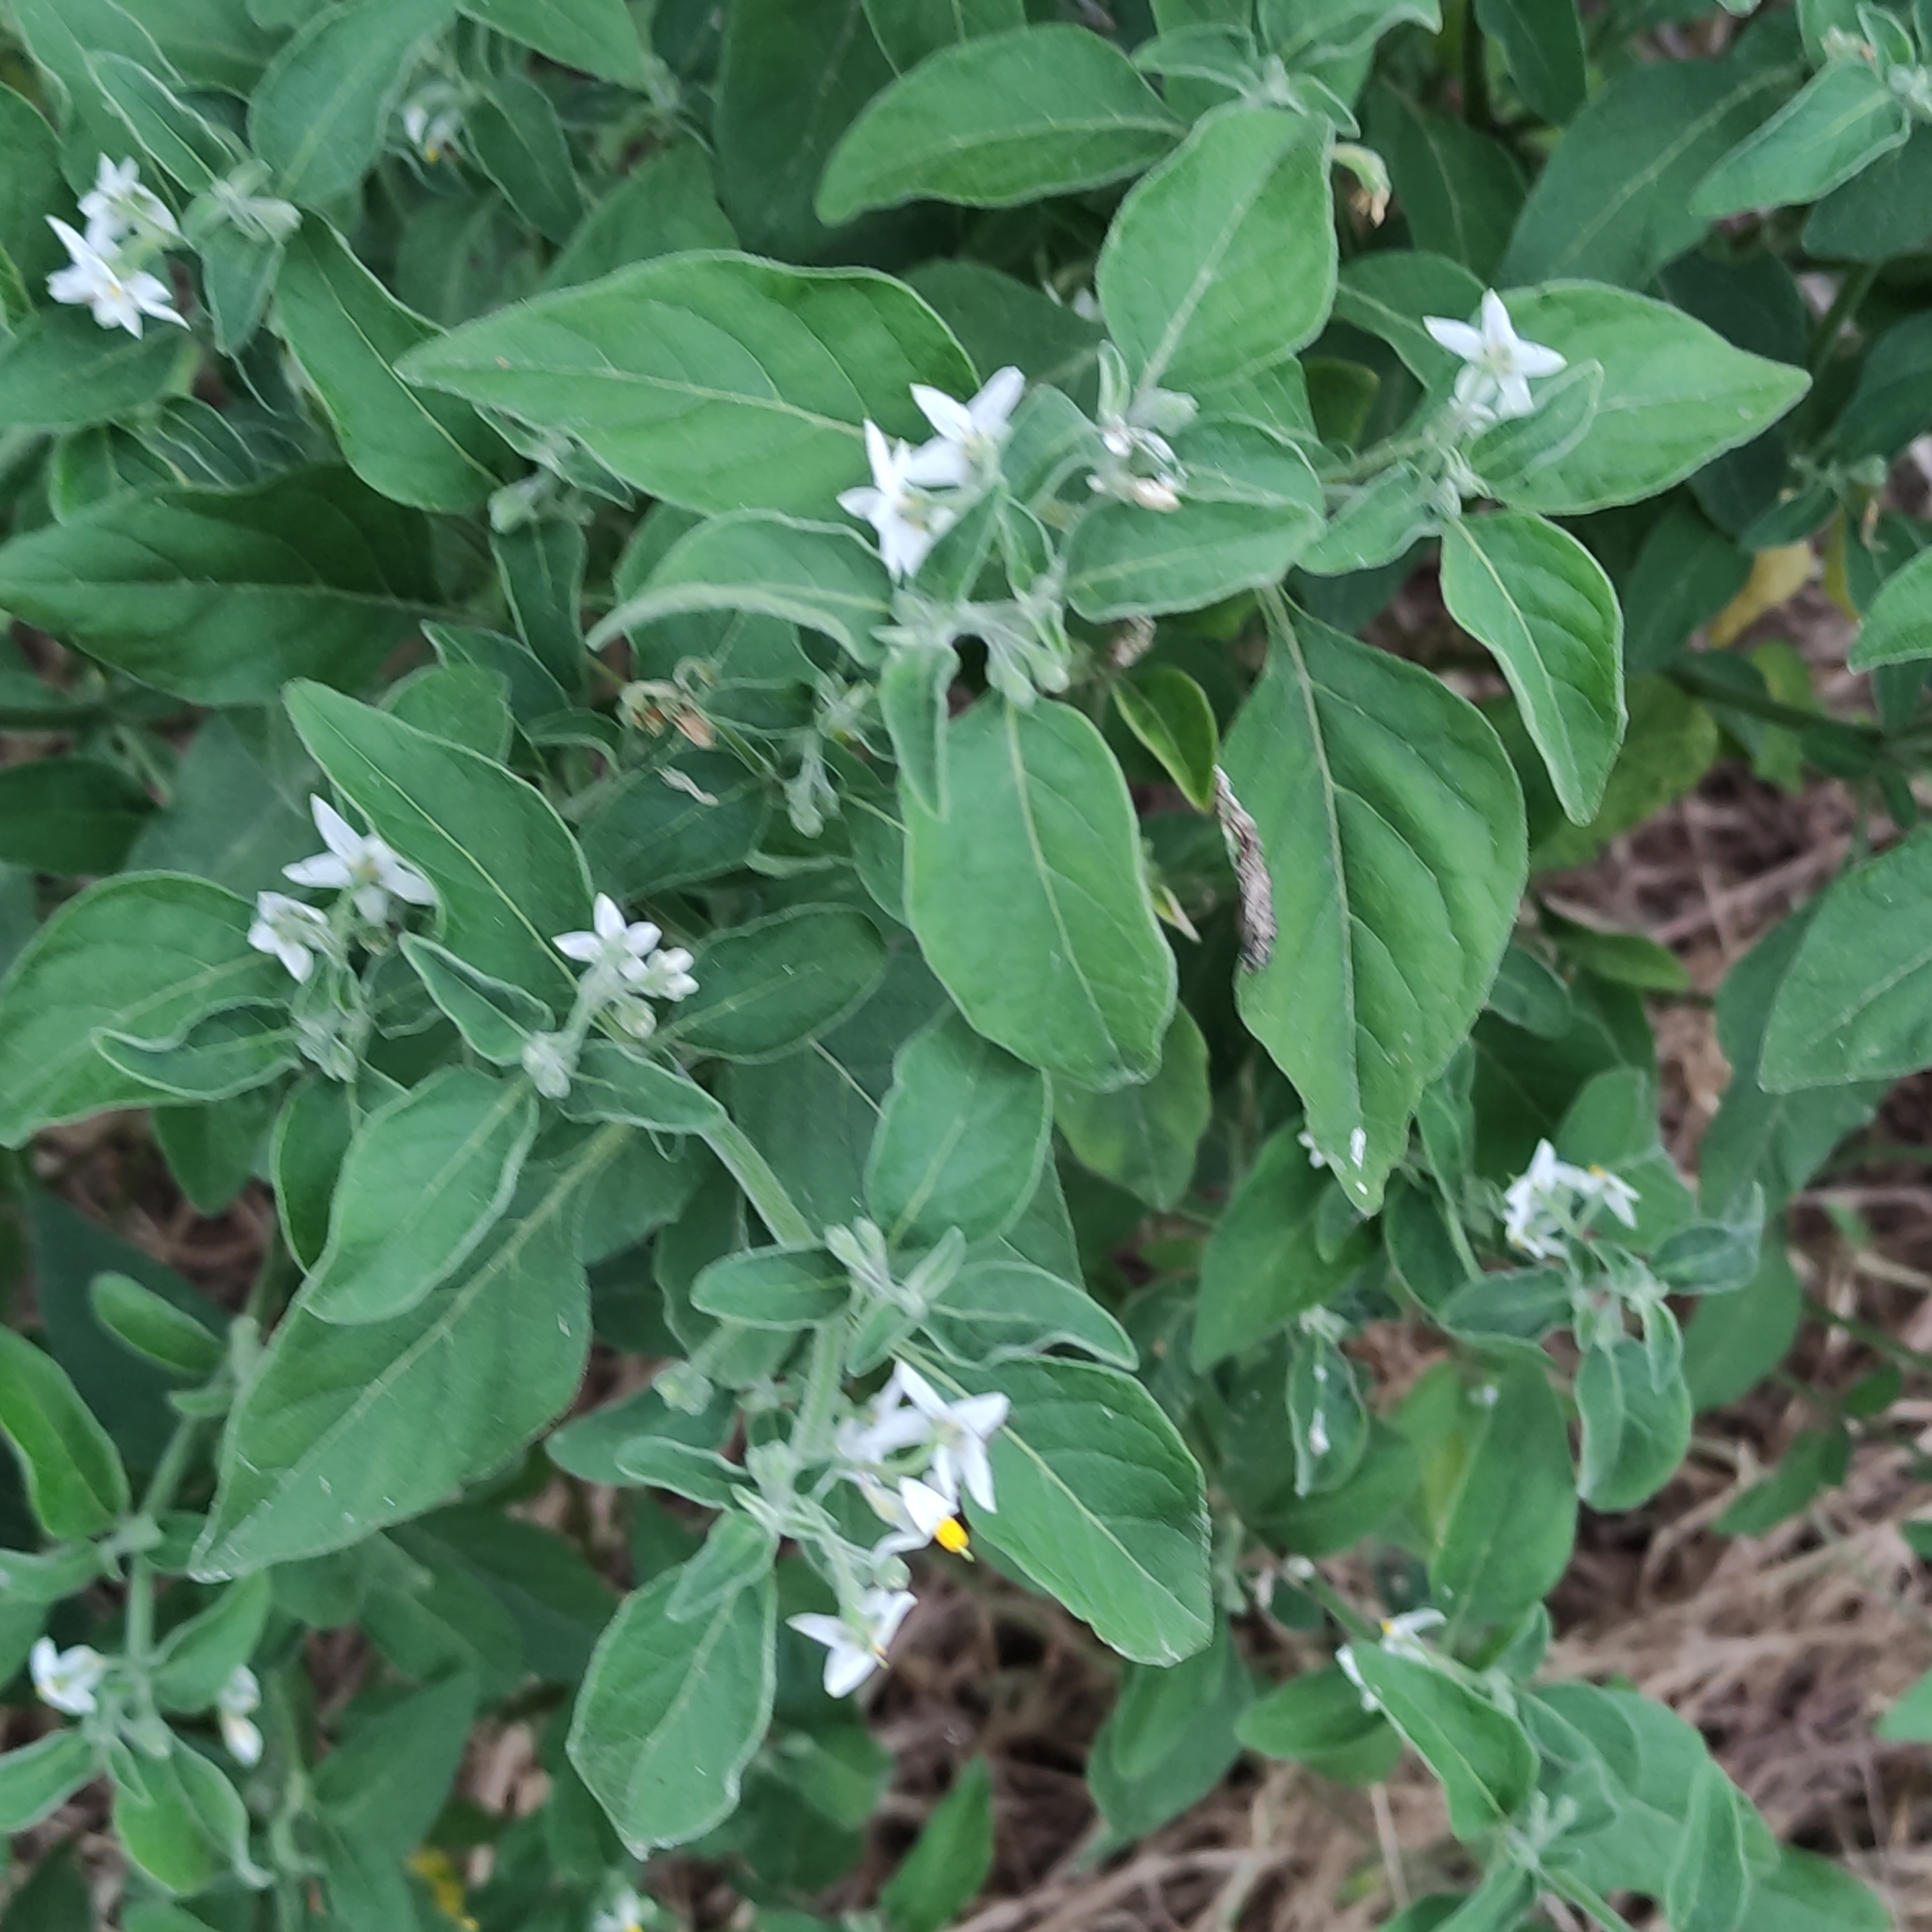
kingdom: Plantae
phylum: Tracheophyta
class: Magnoliopsida
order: Solanales
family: Solanaceae
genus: Solanum
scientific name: Solanum chenopodioides
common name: Tall nightshade
